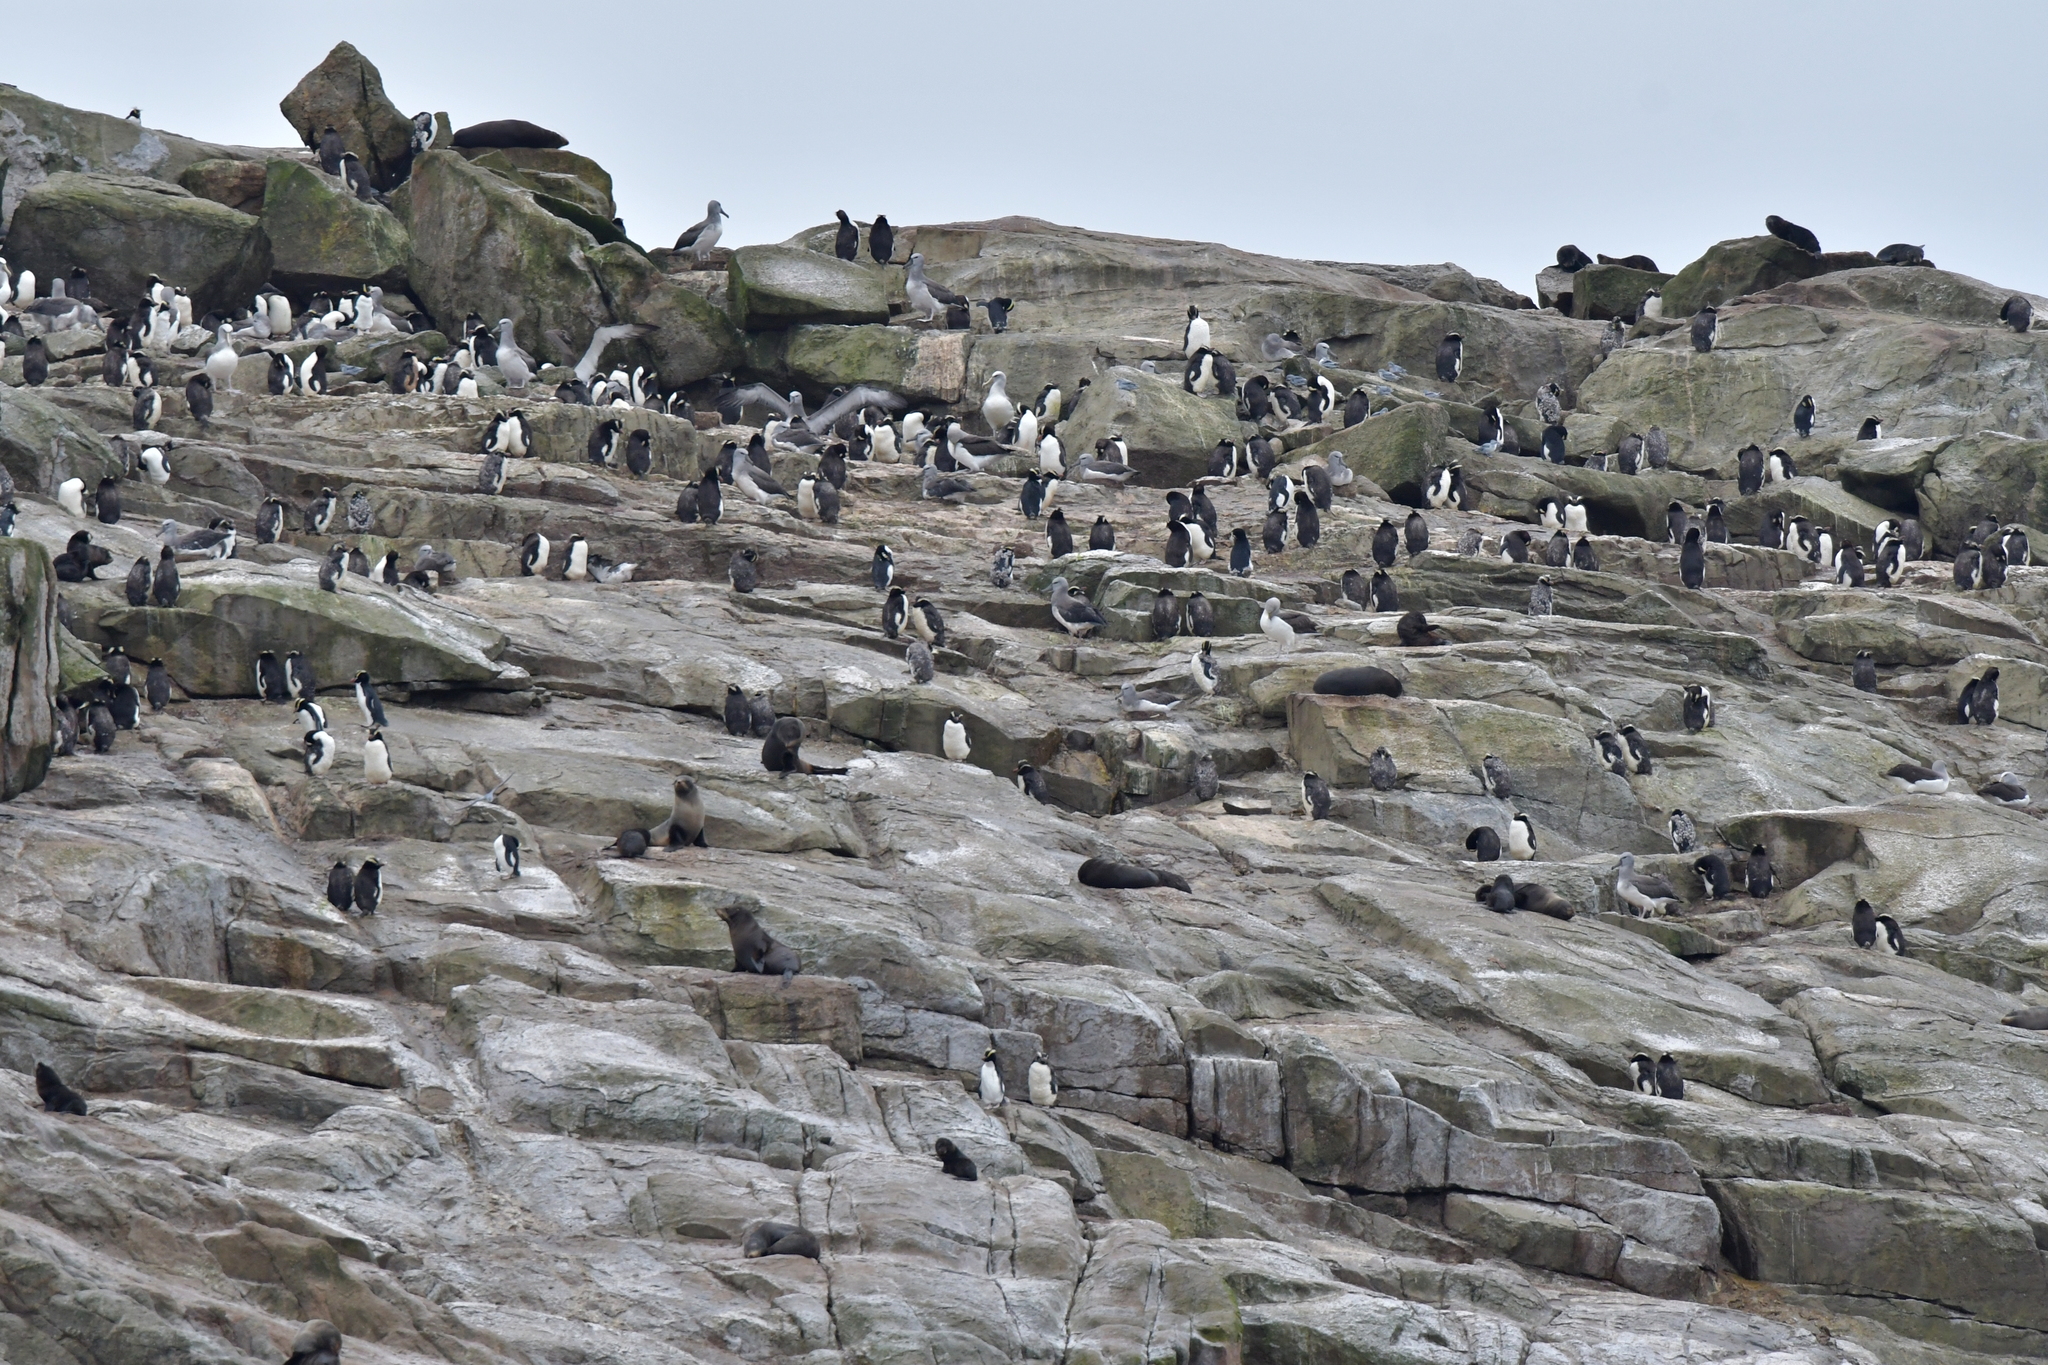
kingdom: Animalia
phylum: Chordata
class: Aves
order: Procellariiformes
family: Diomedeidae
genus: Thalassarche
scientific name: Thalassarche salvini
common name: Salvin's albatross
